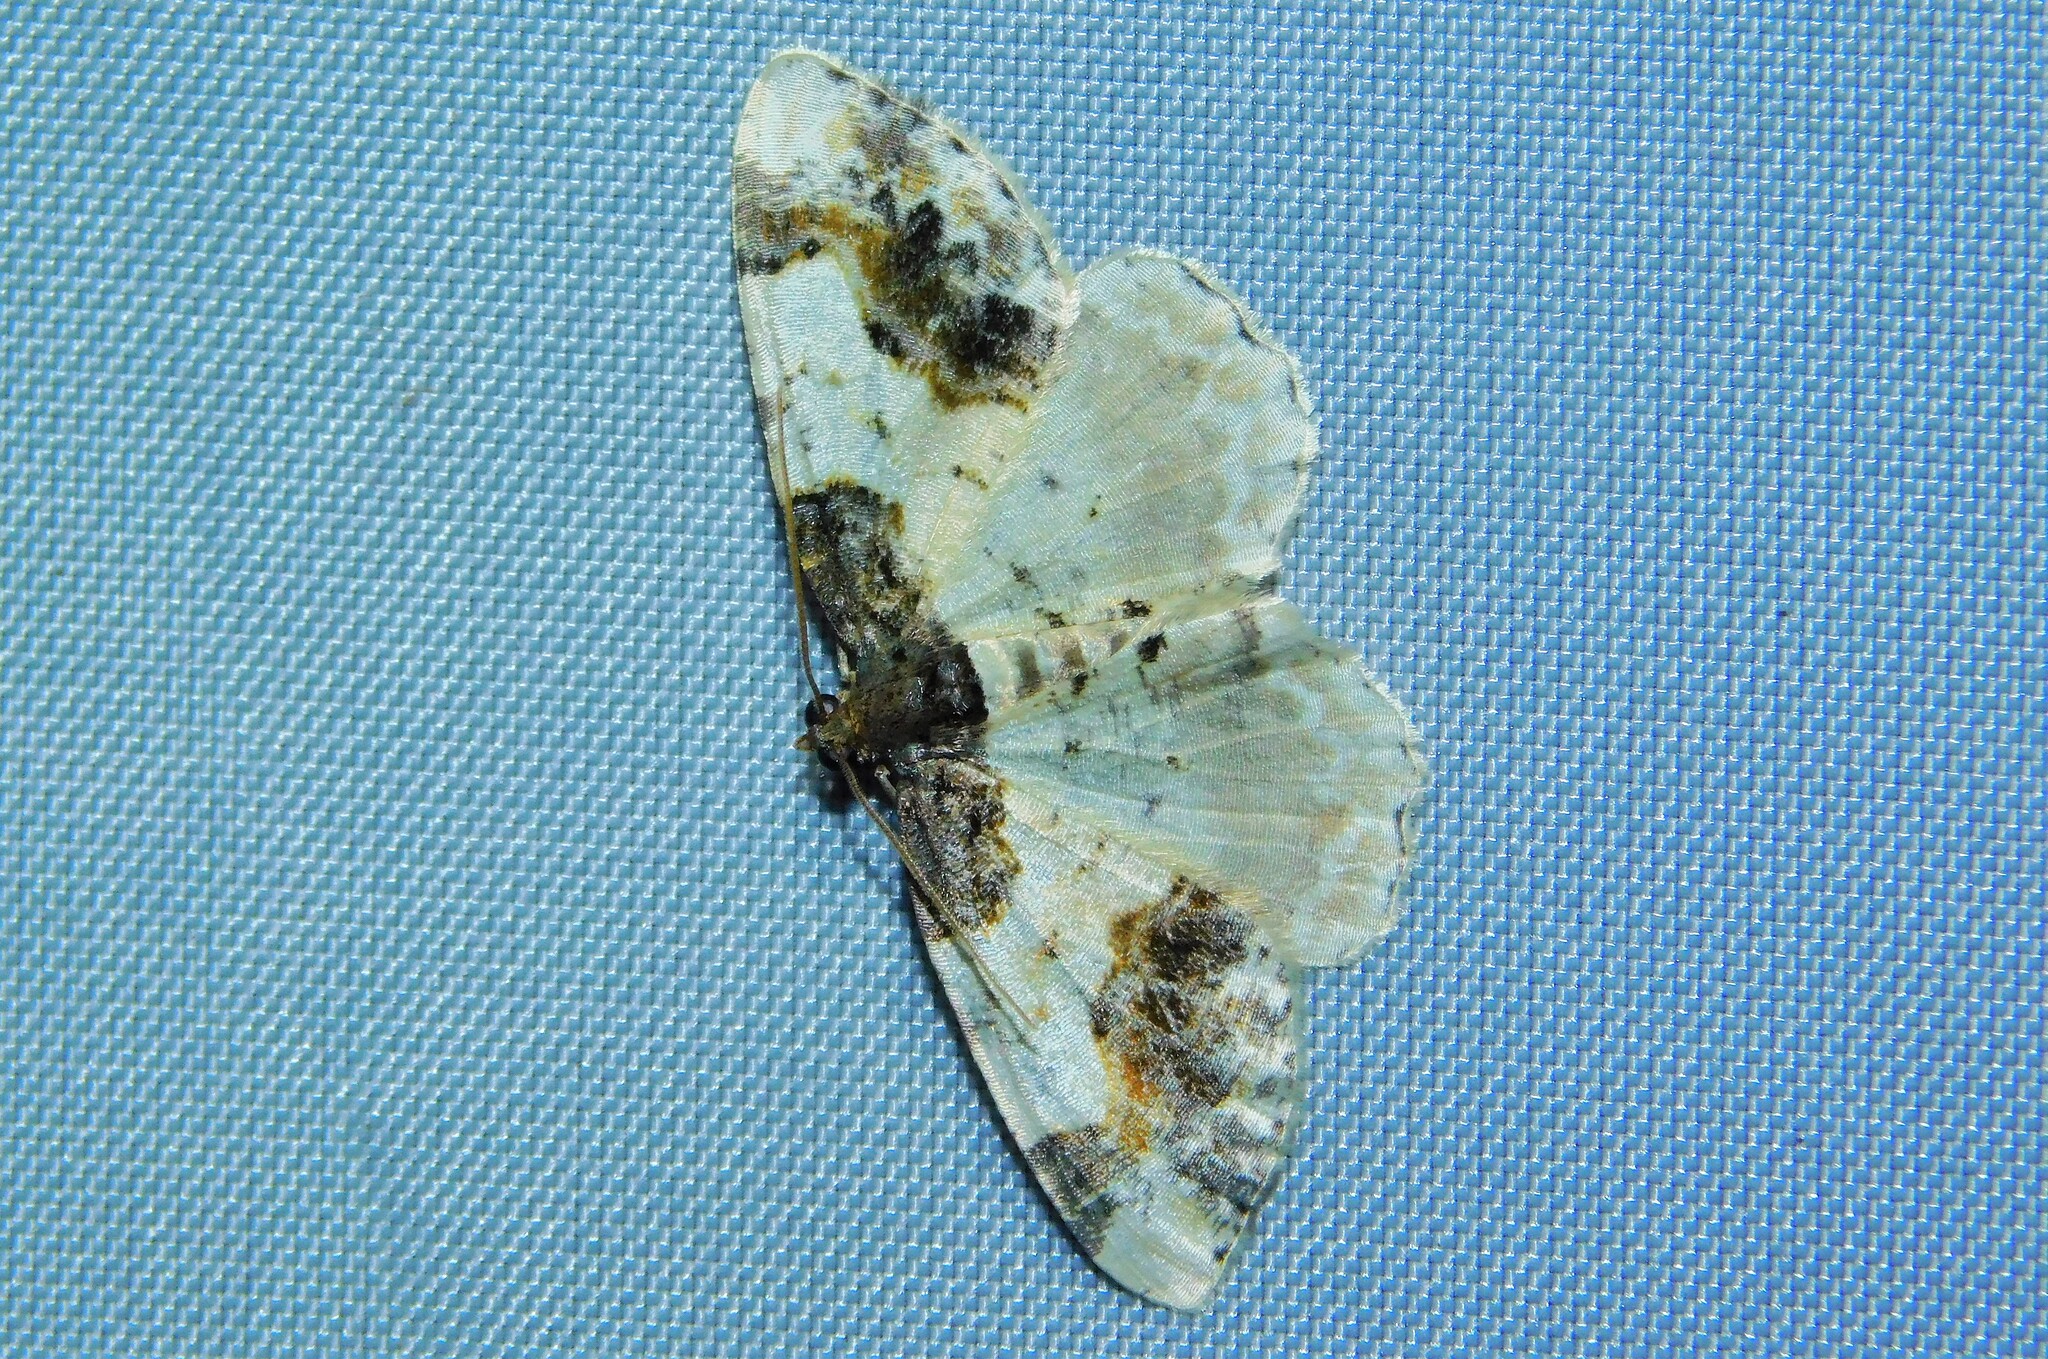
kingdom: Animalia
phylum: Arthropoda
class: Insecta
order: Lepidoptera
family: Geometridae
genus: Ligdia
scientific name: Ligdia adustata
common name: Scorched carpet
